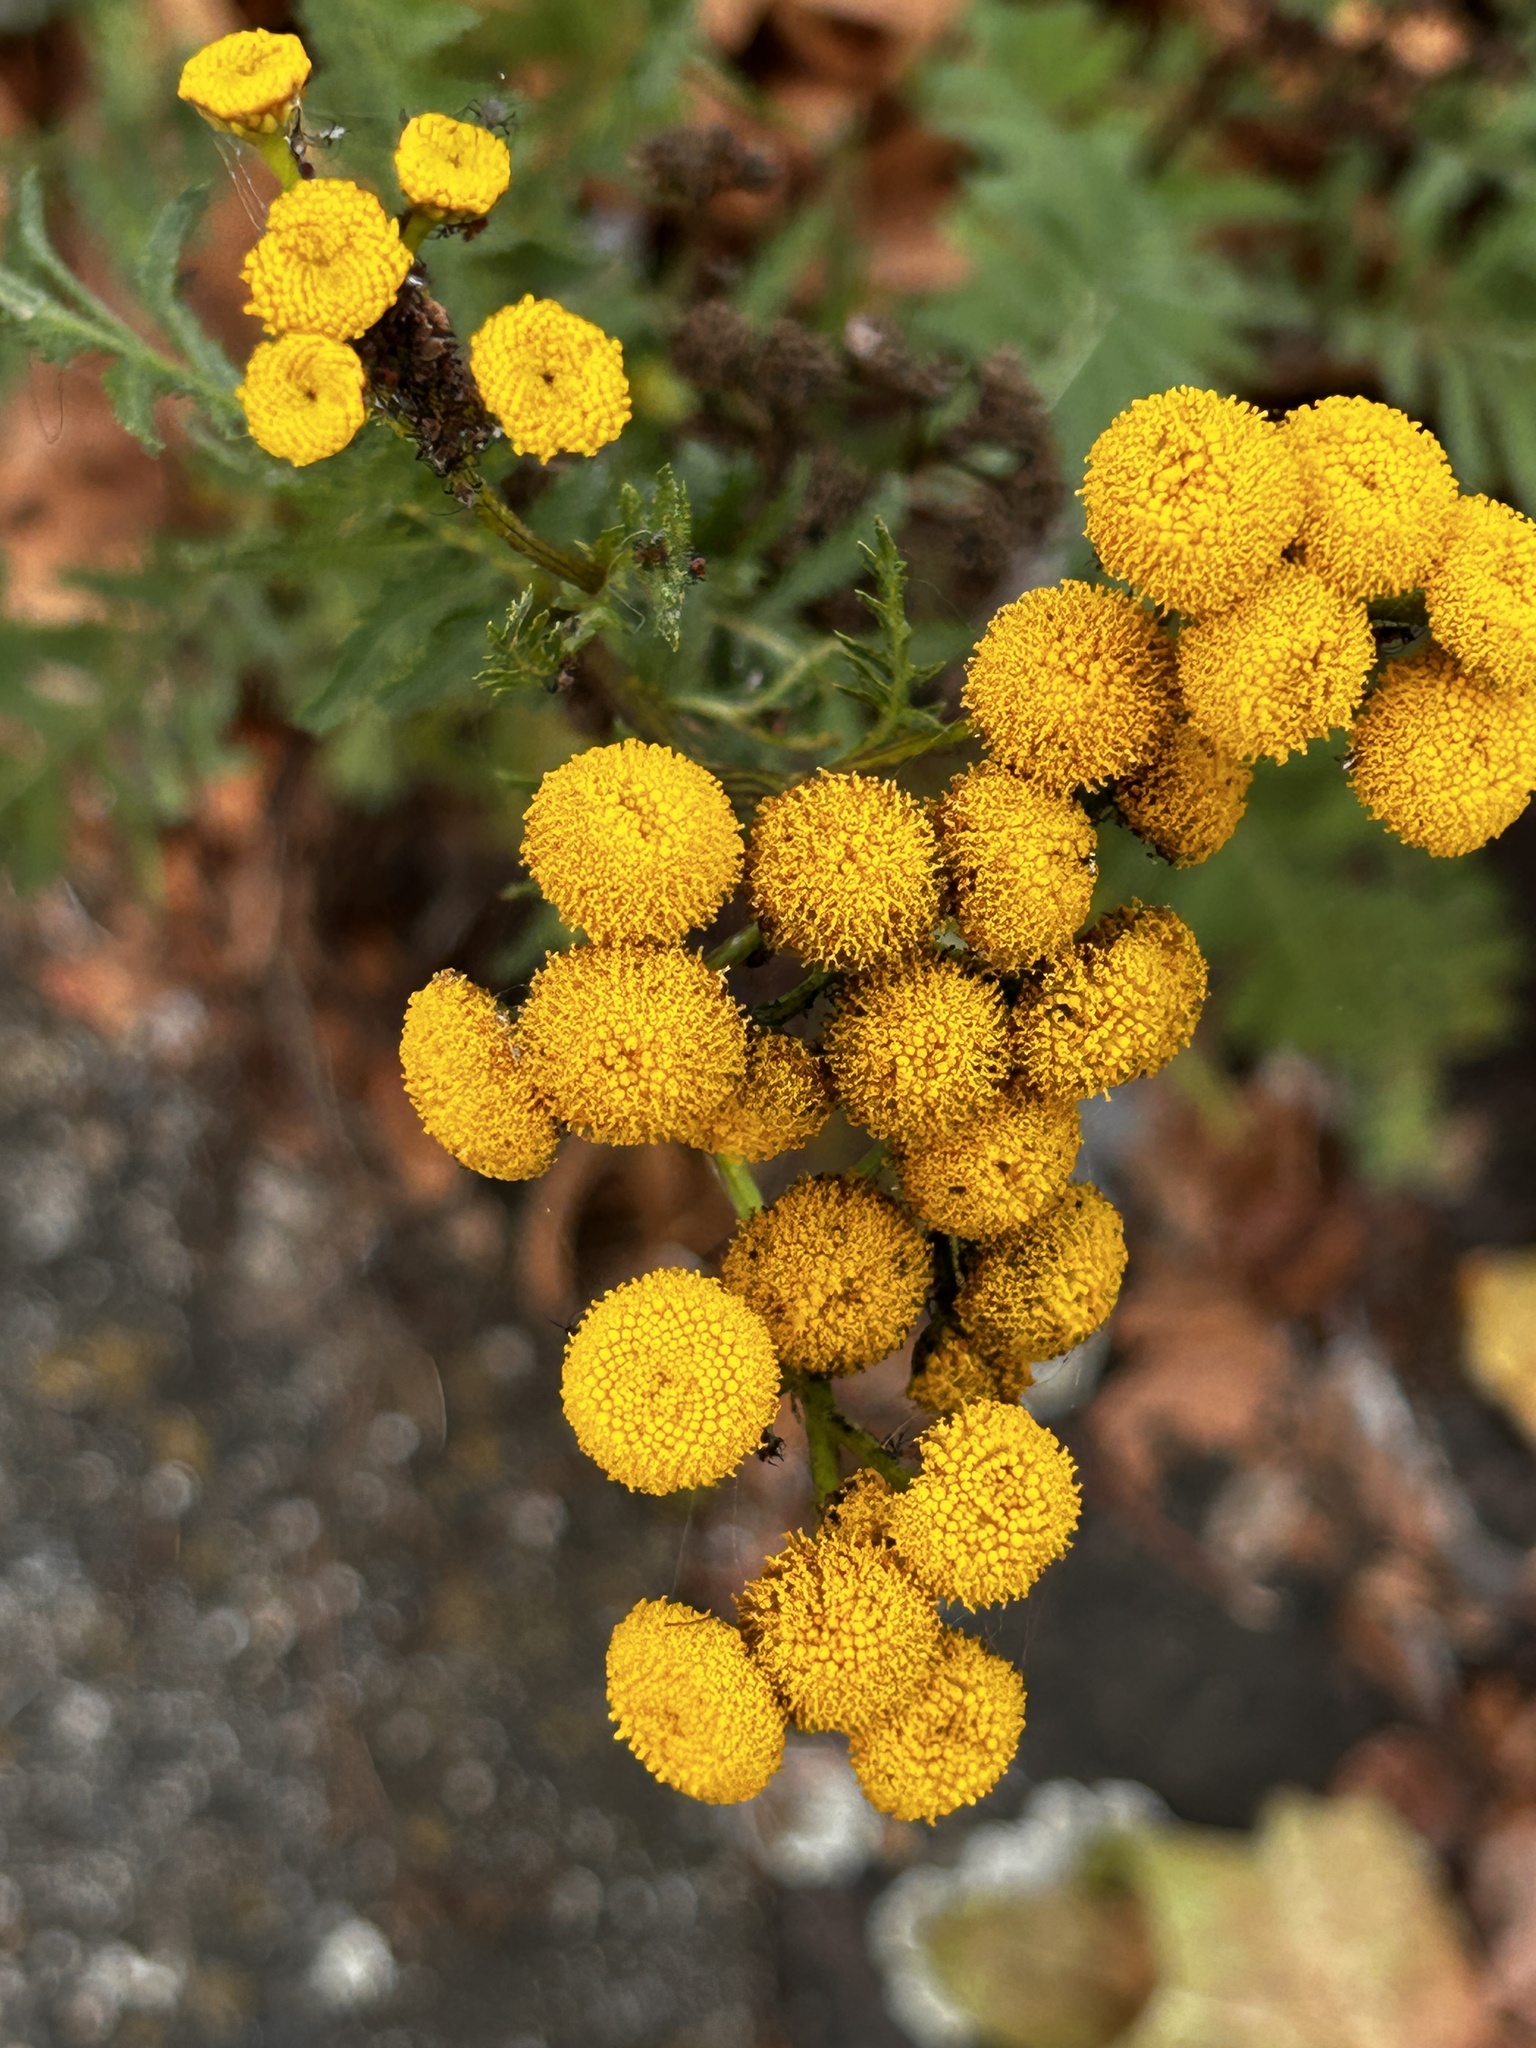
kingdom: Plantae
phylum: Tracheophyta
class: Magnoliopsida
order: Asterales
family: Asteraceae
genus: Tanacetum
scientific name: Tanacetum vulgare
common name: Common tansy
